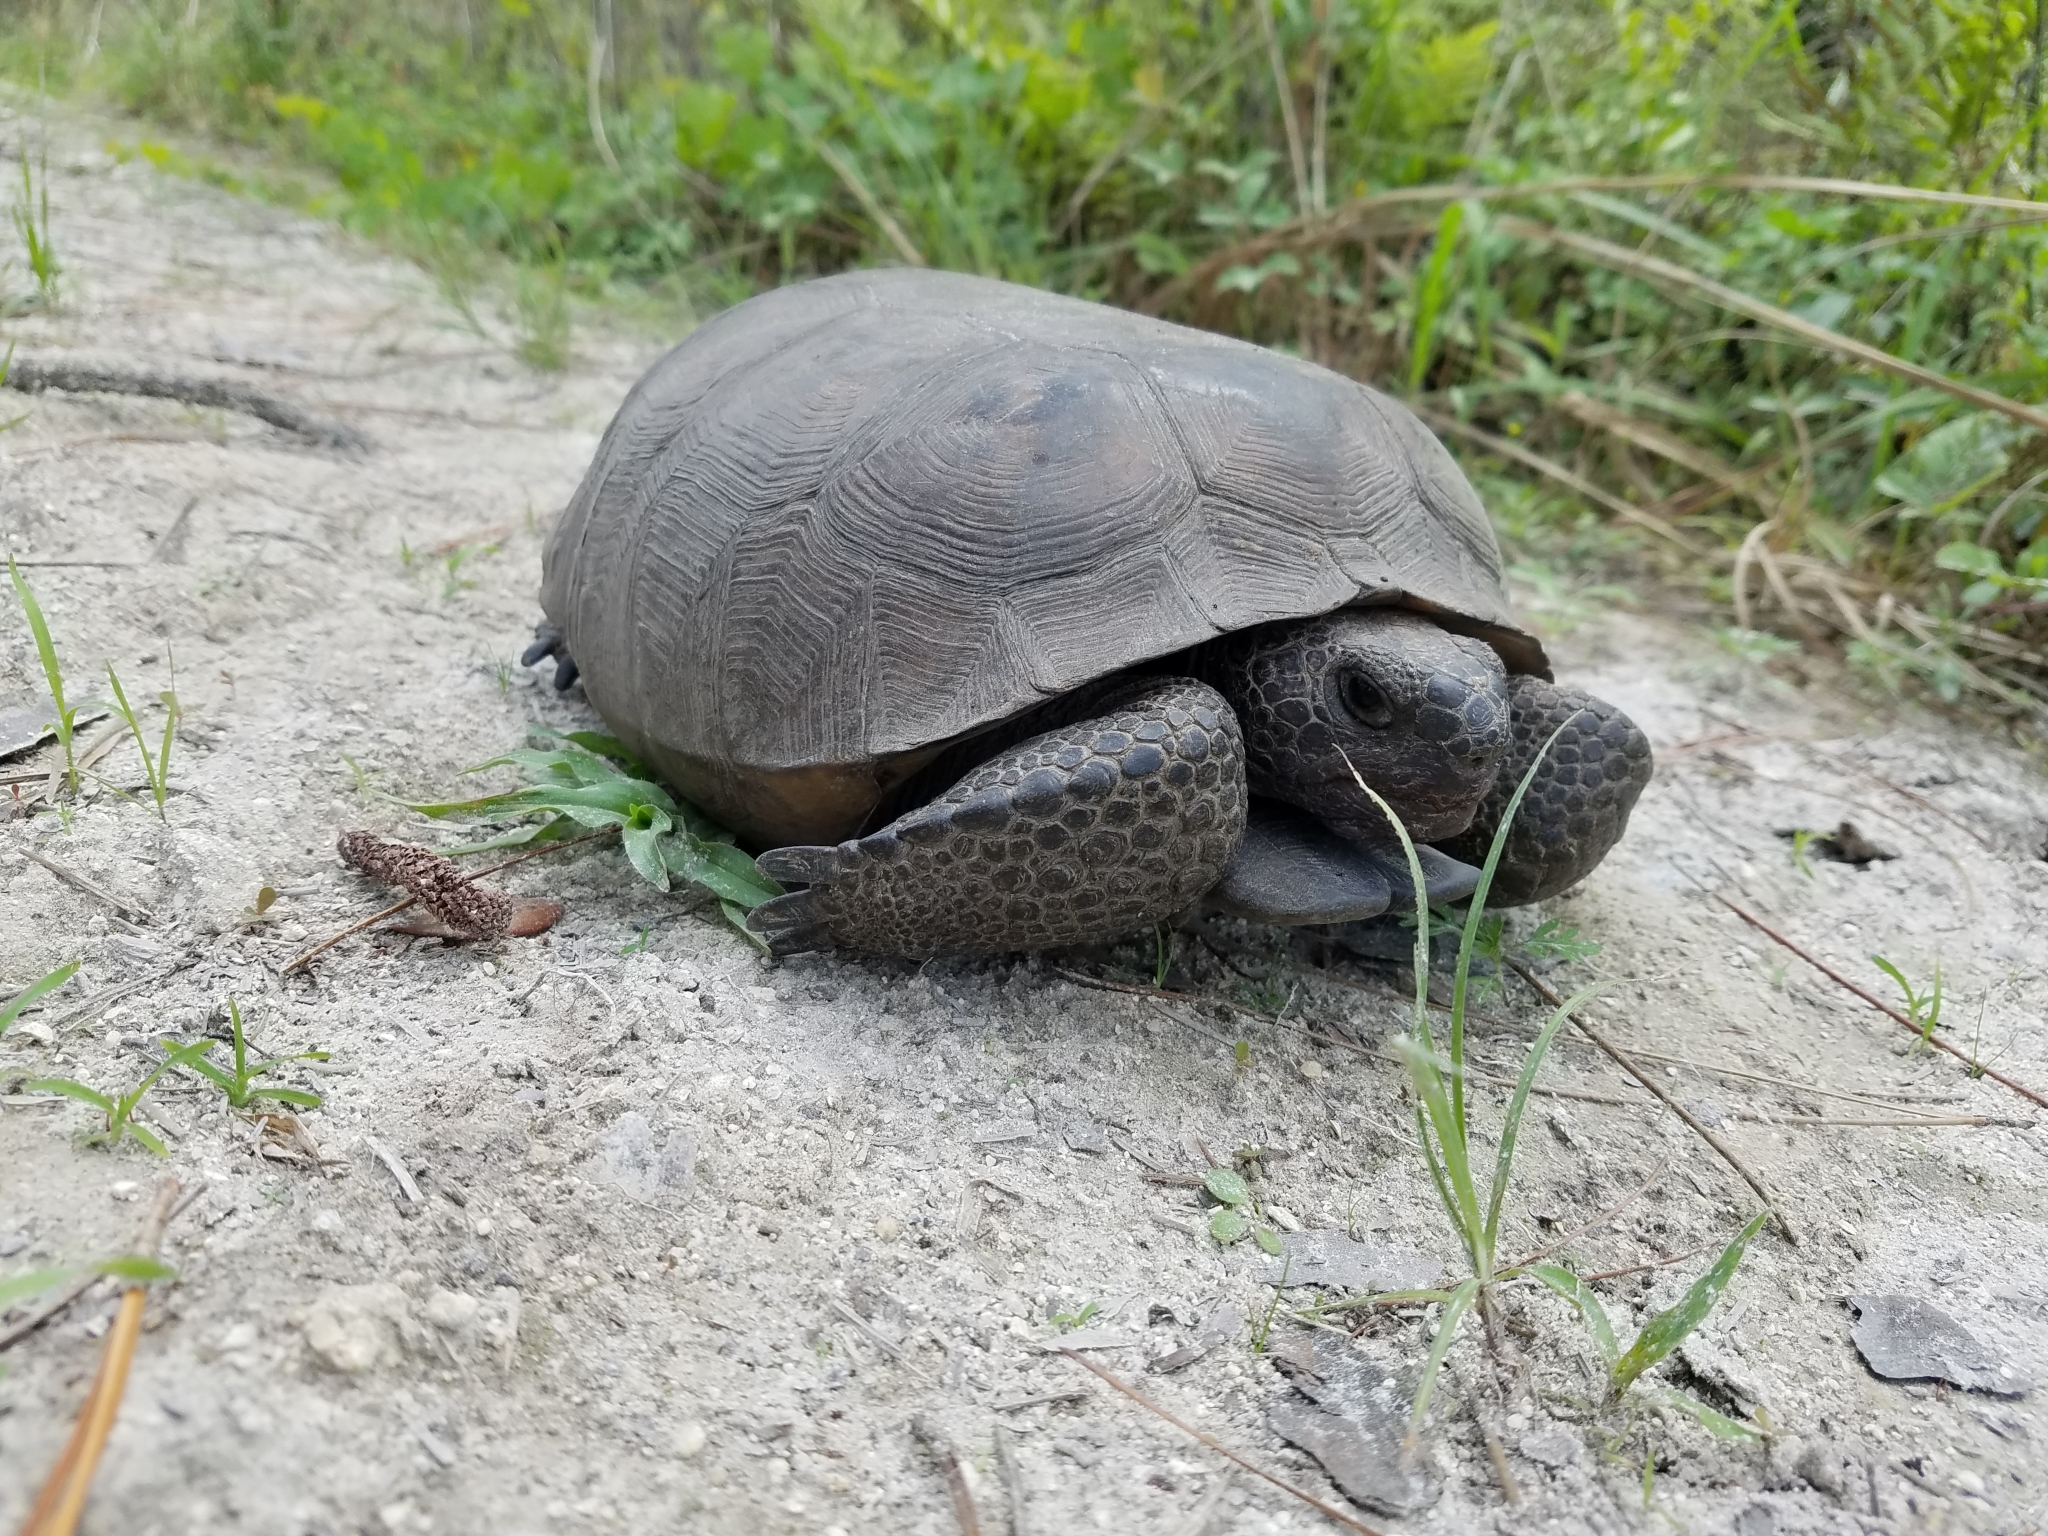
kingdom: Animalia
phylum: Chordata
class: Testudines
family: Testudinidae
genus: Gopherus
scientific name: Gopherus polyphemus
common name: Florida gopher tortoise
